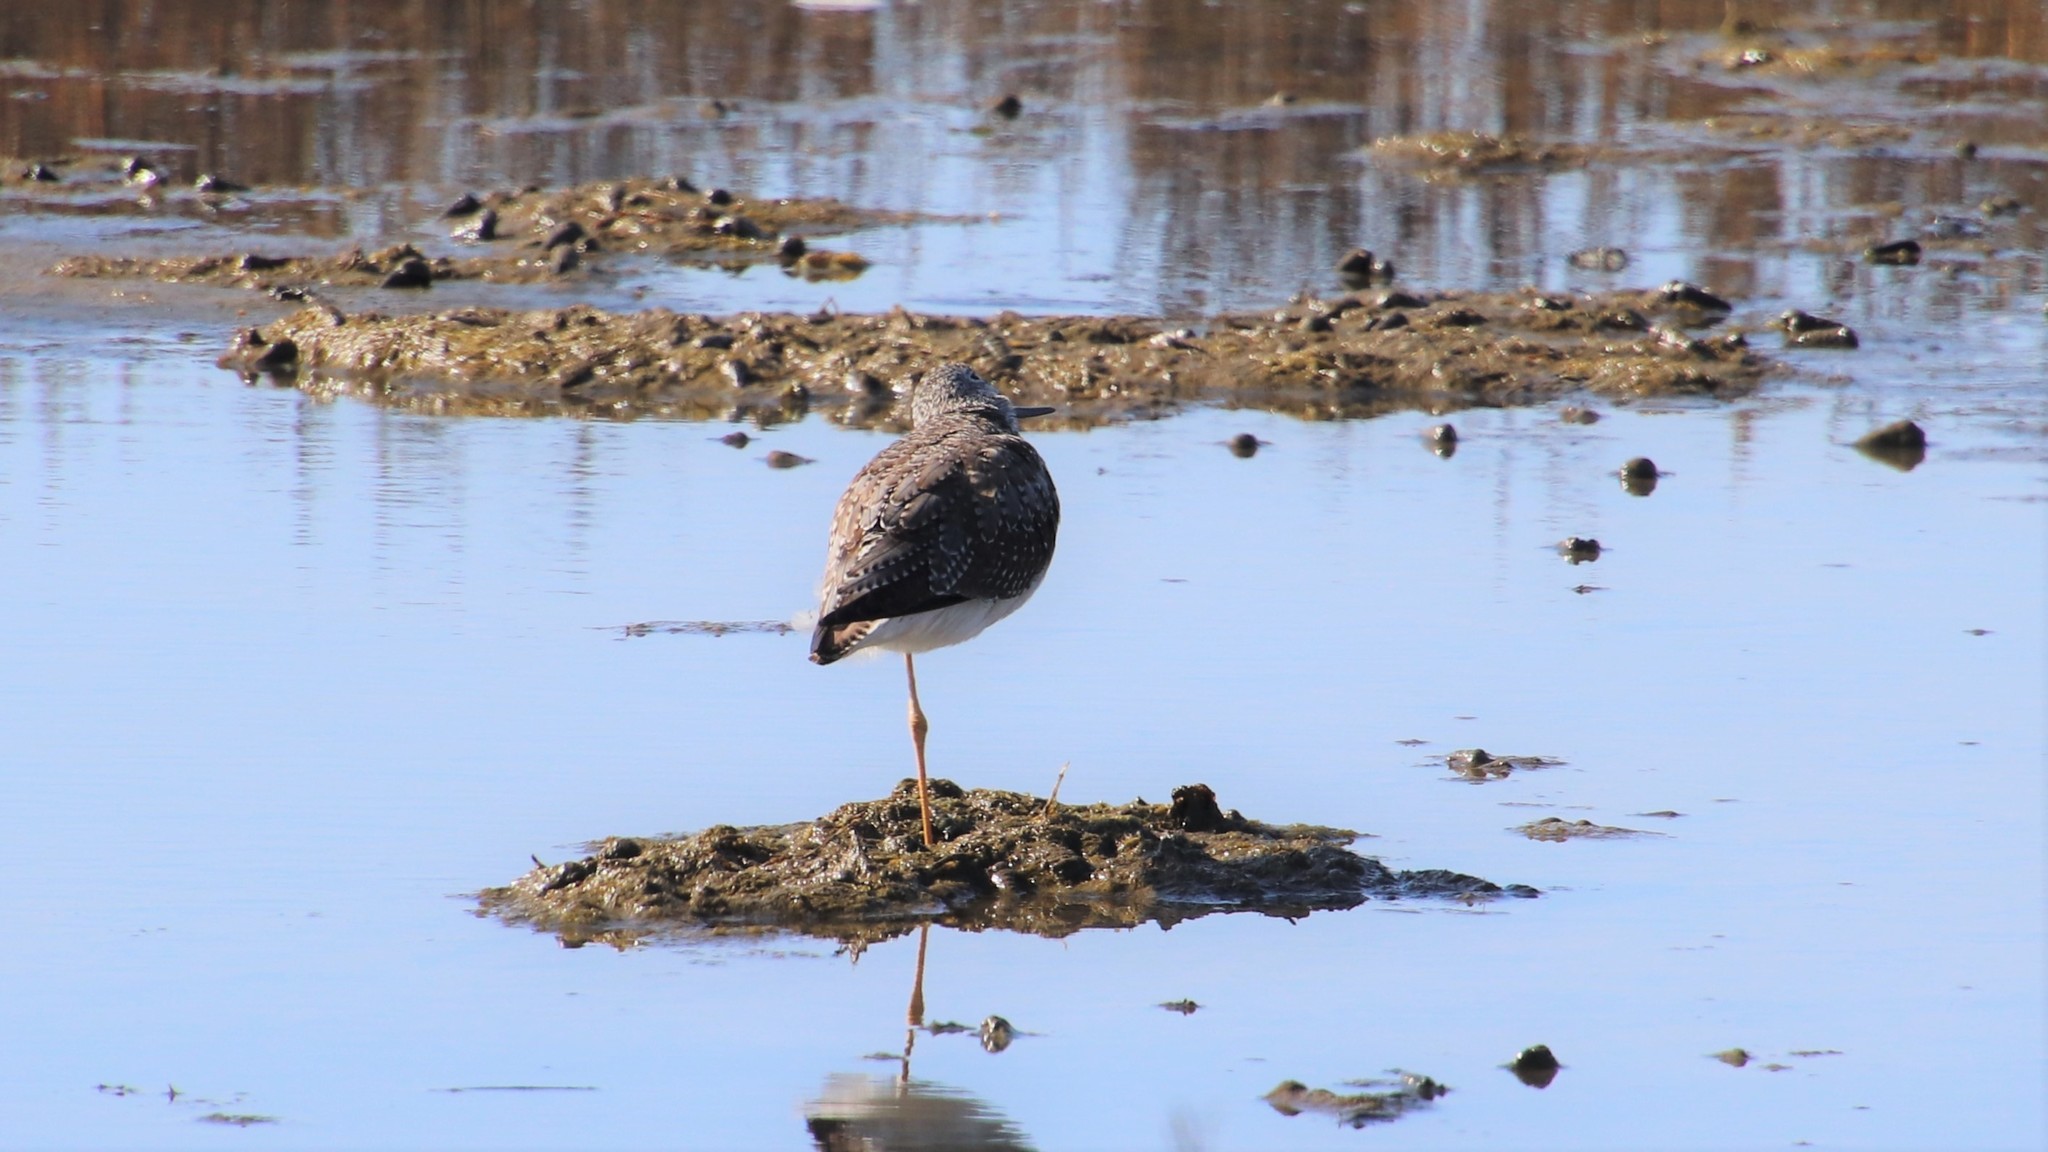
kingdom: Animalia
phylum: Chordata
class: Aves
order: Charadriiformes
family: Scolopacidae
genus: Tringa
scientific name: Tringa melanoleuca
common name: Greater yellowlegs
